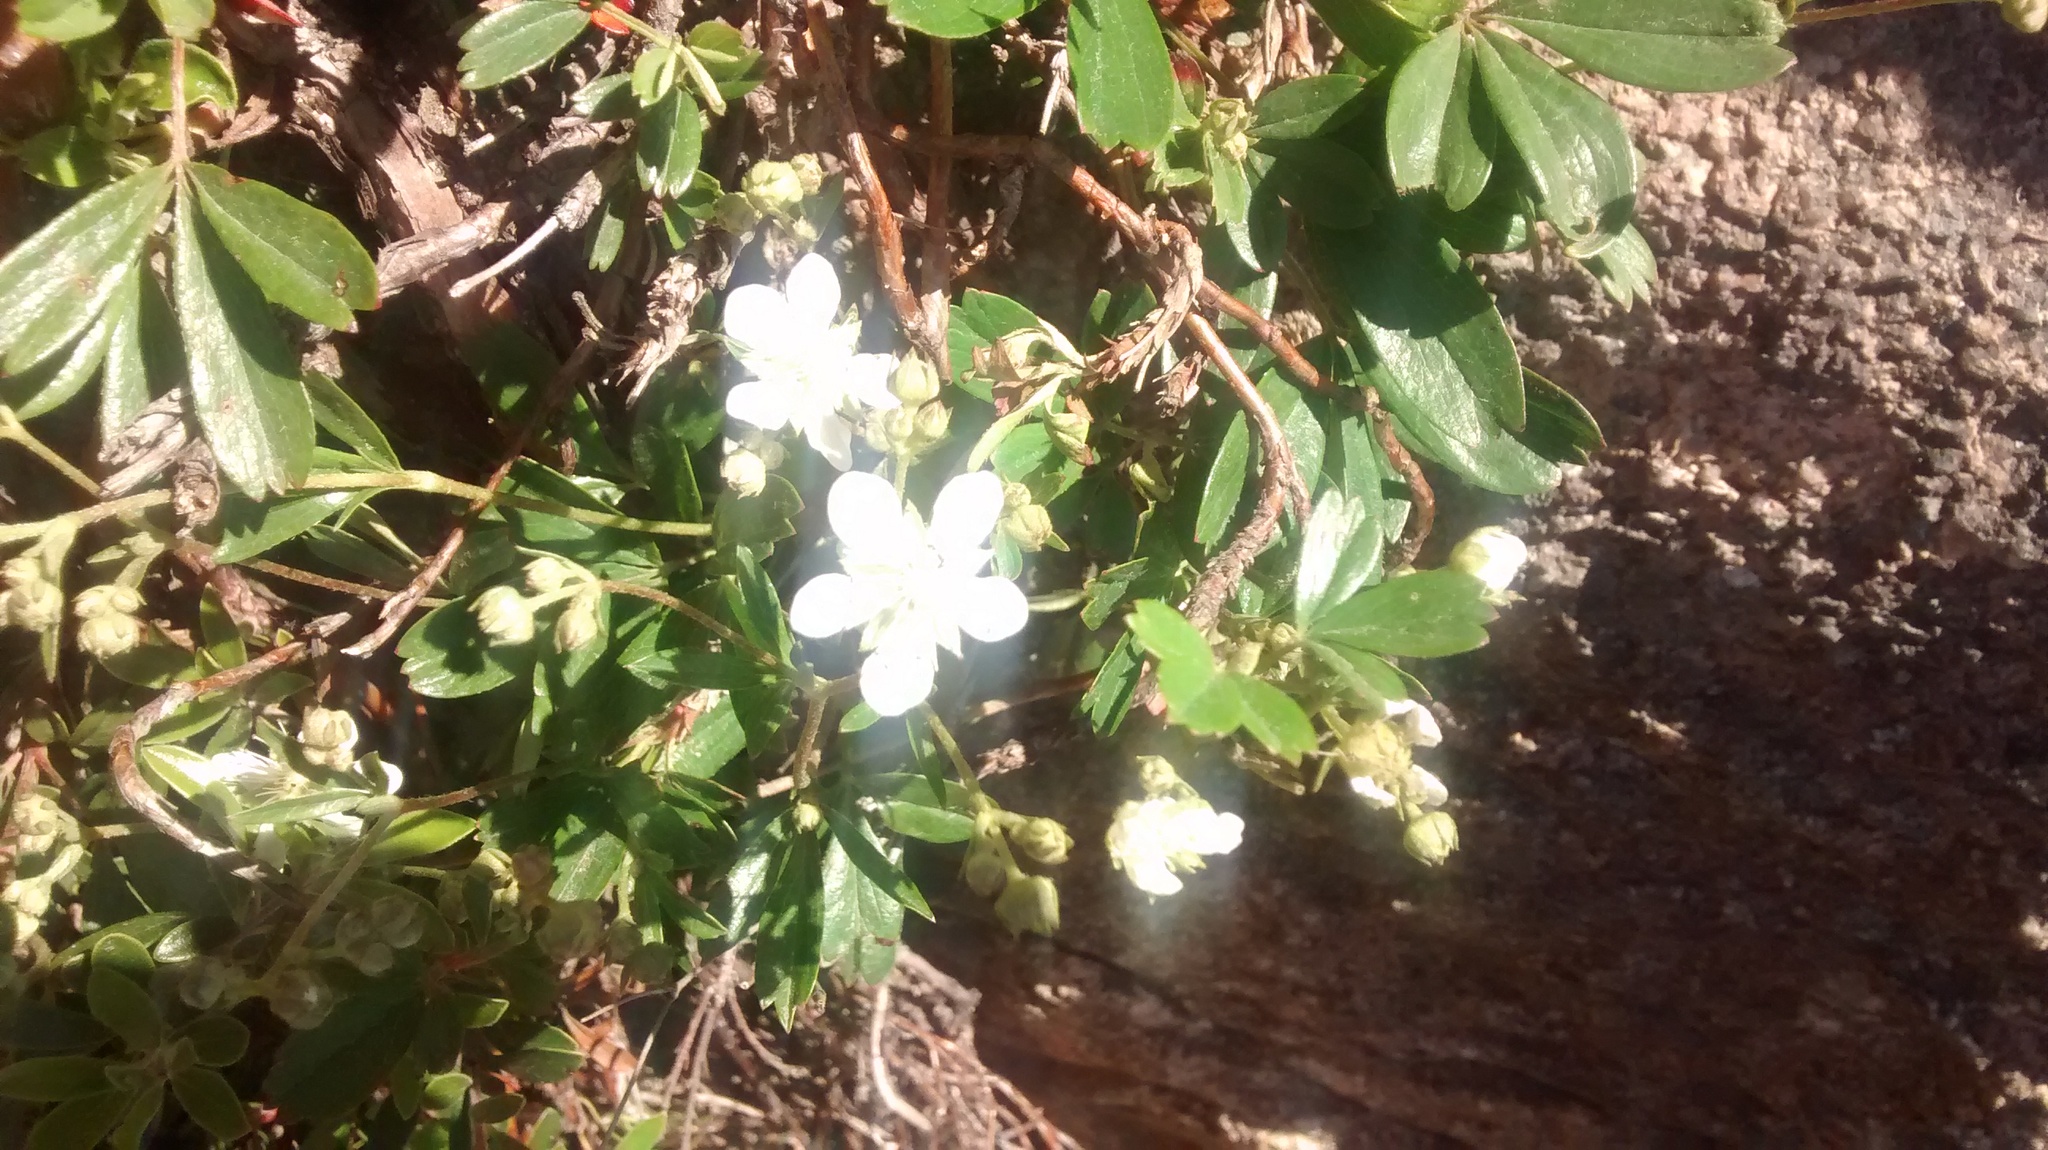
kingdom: Plantae
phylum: Tracheophyta
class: Magnoliopsida
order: Rosales
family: Rosaceae
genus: Sibbaldia
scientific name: Sibbaldia tridentata
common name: Three-toothed cinquefoil
